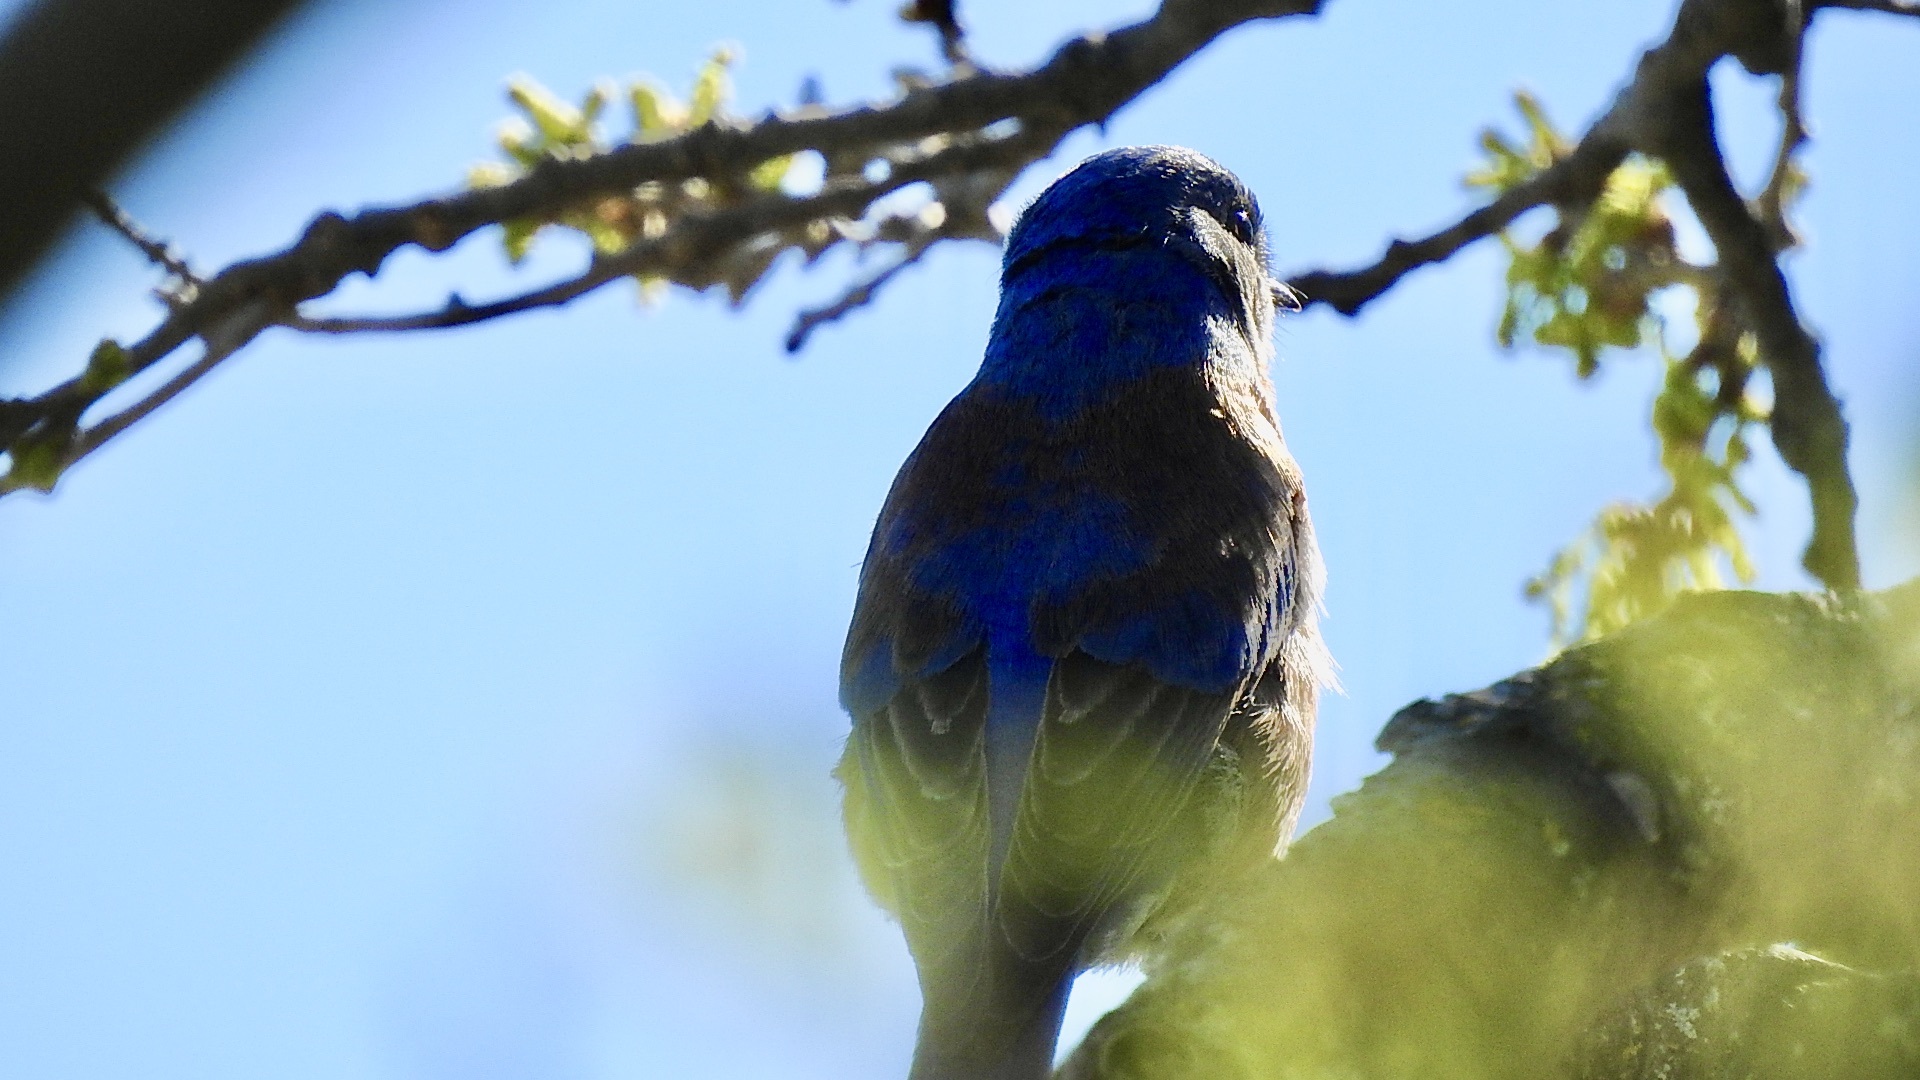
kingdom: Animalia
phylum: Chordata
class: Aves
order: Passeriformes
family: Turdidae
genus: Sialia
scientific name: Sialia mexicana
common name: Western bluebird
